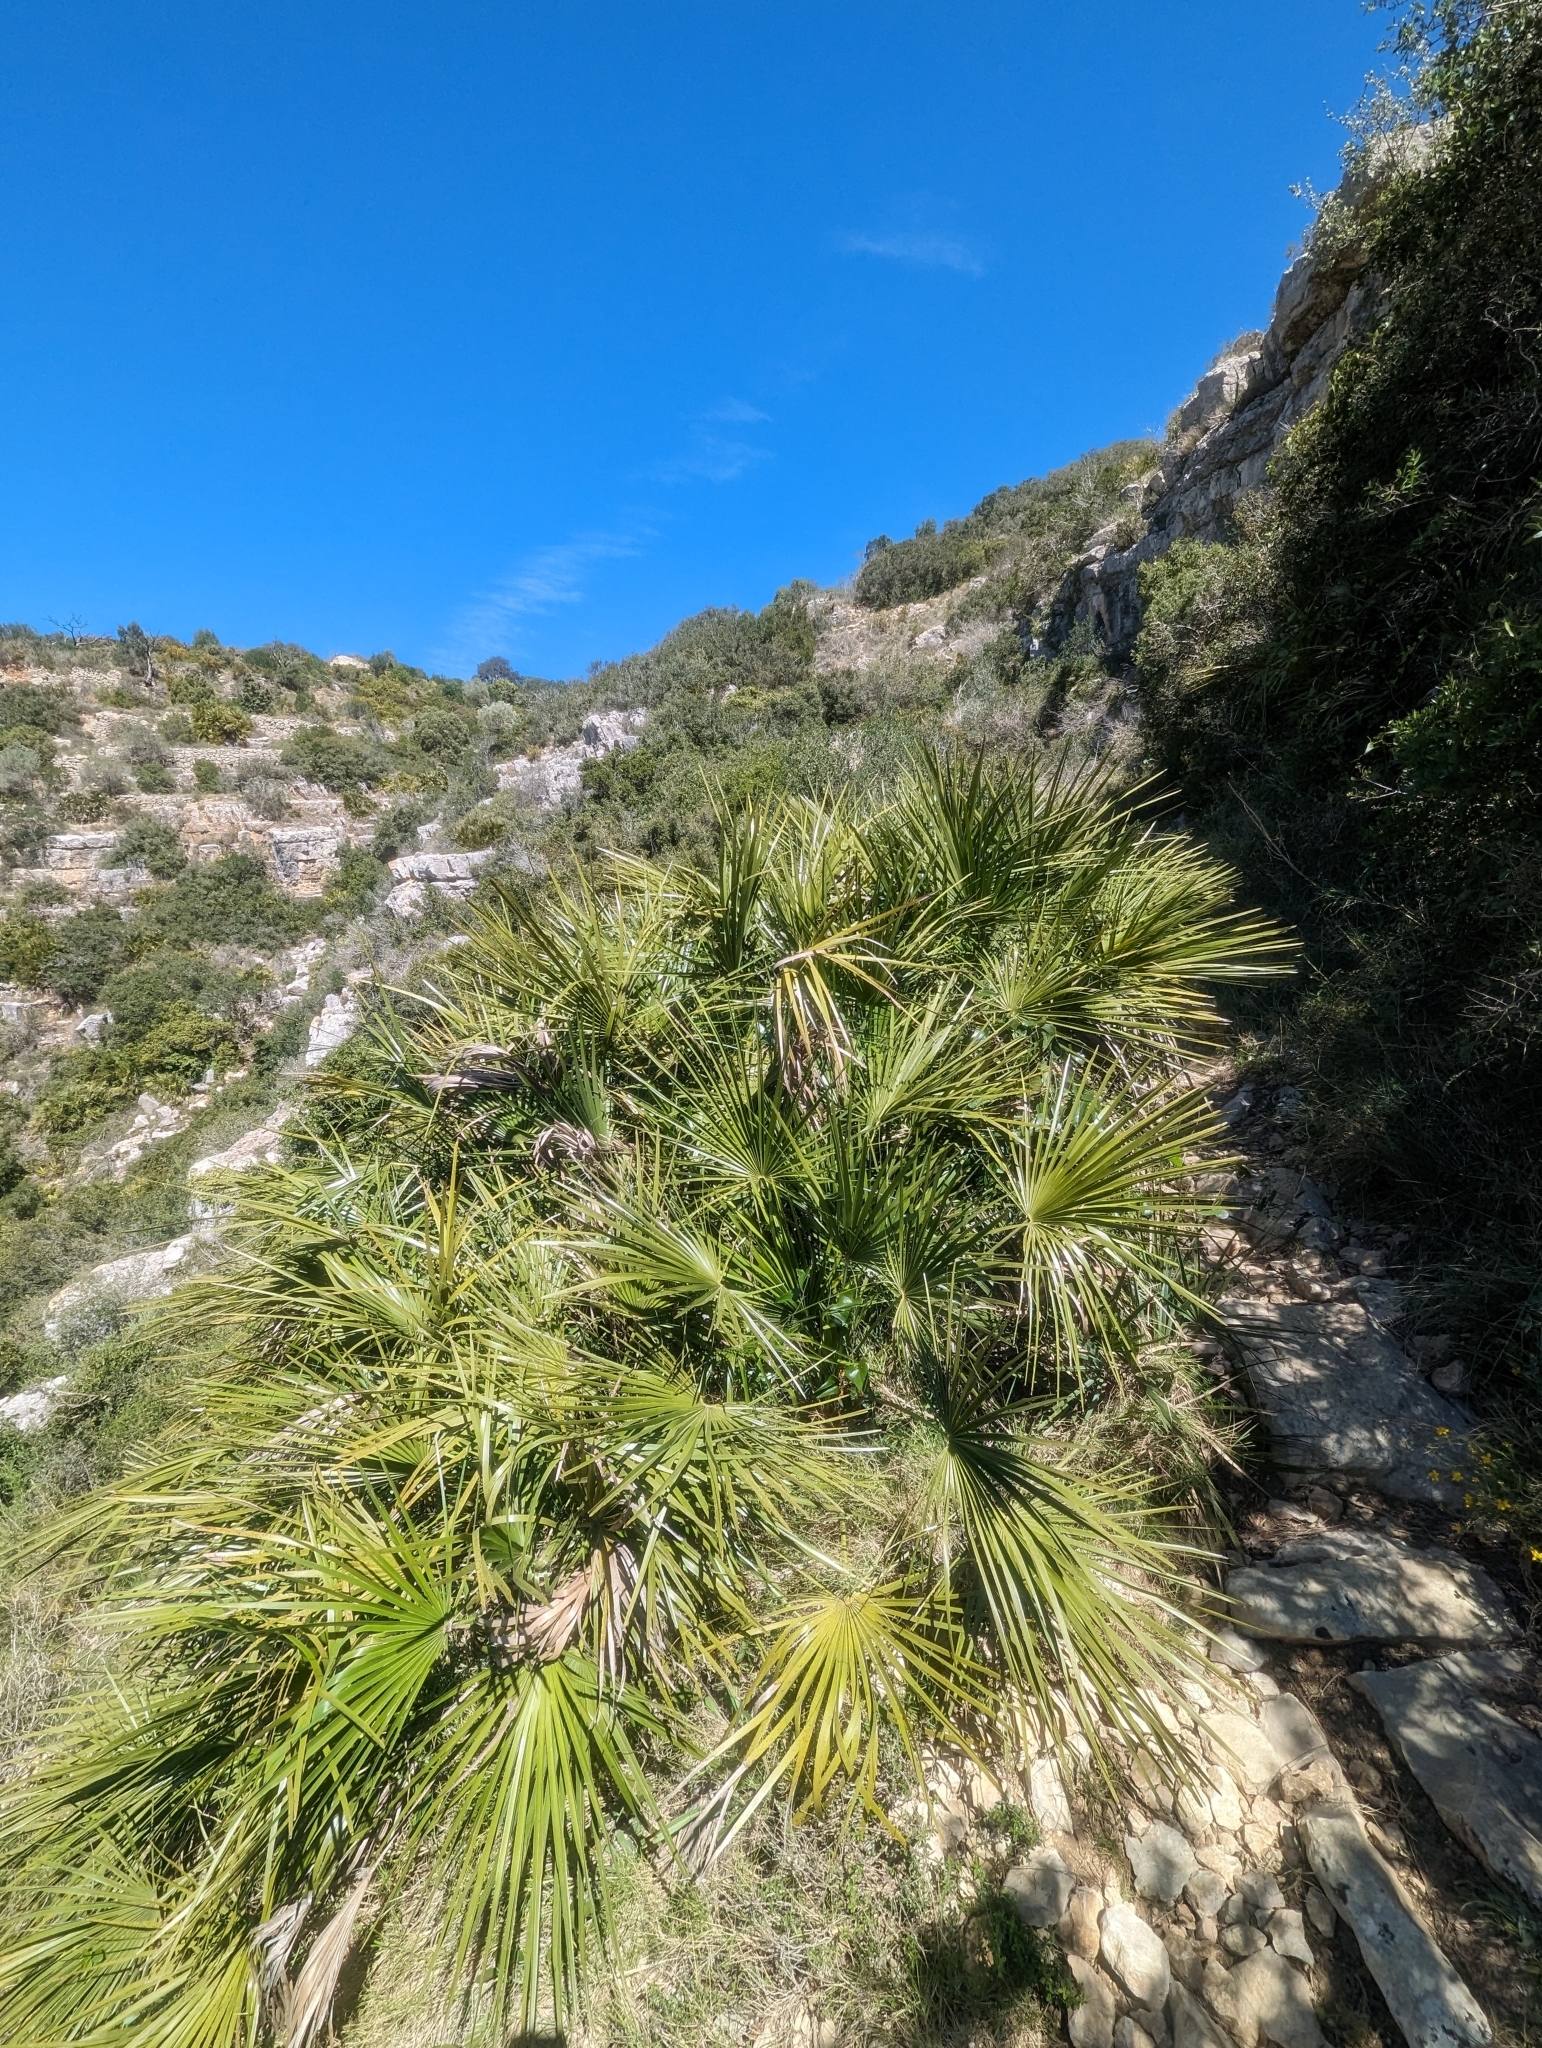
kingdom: Plantae
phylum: Tracheophyta
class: Liliopsida
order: Arecales
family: Arecaceae
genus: Chamaerops
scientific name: Chamaerops humilis
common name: Dwarf fan palm
